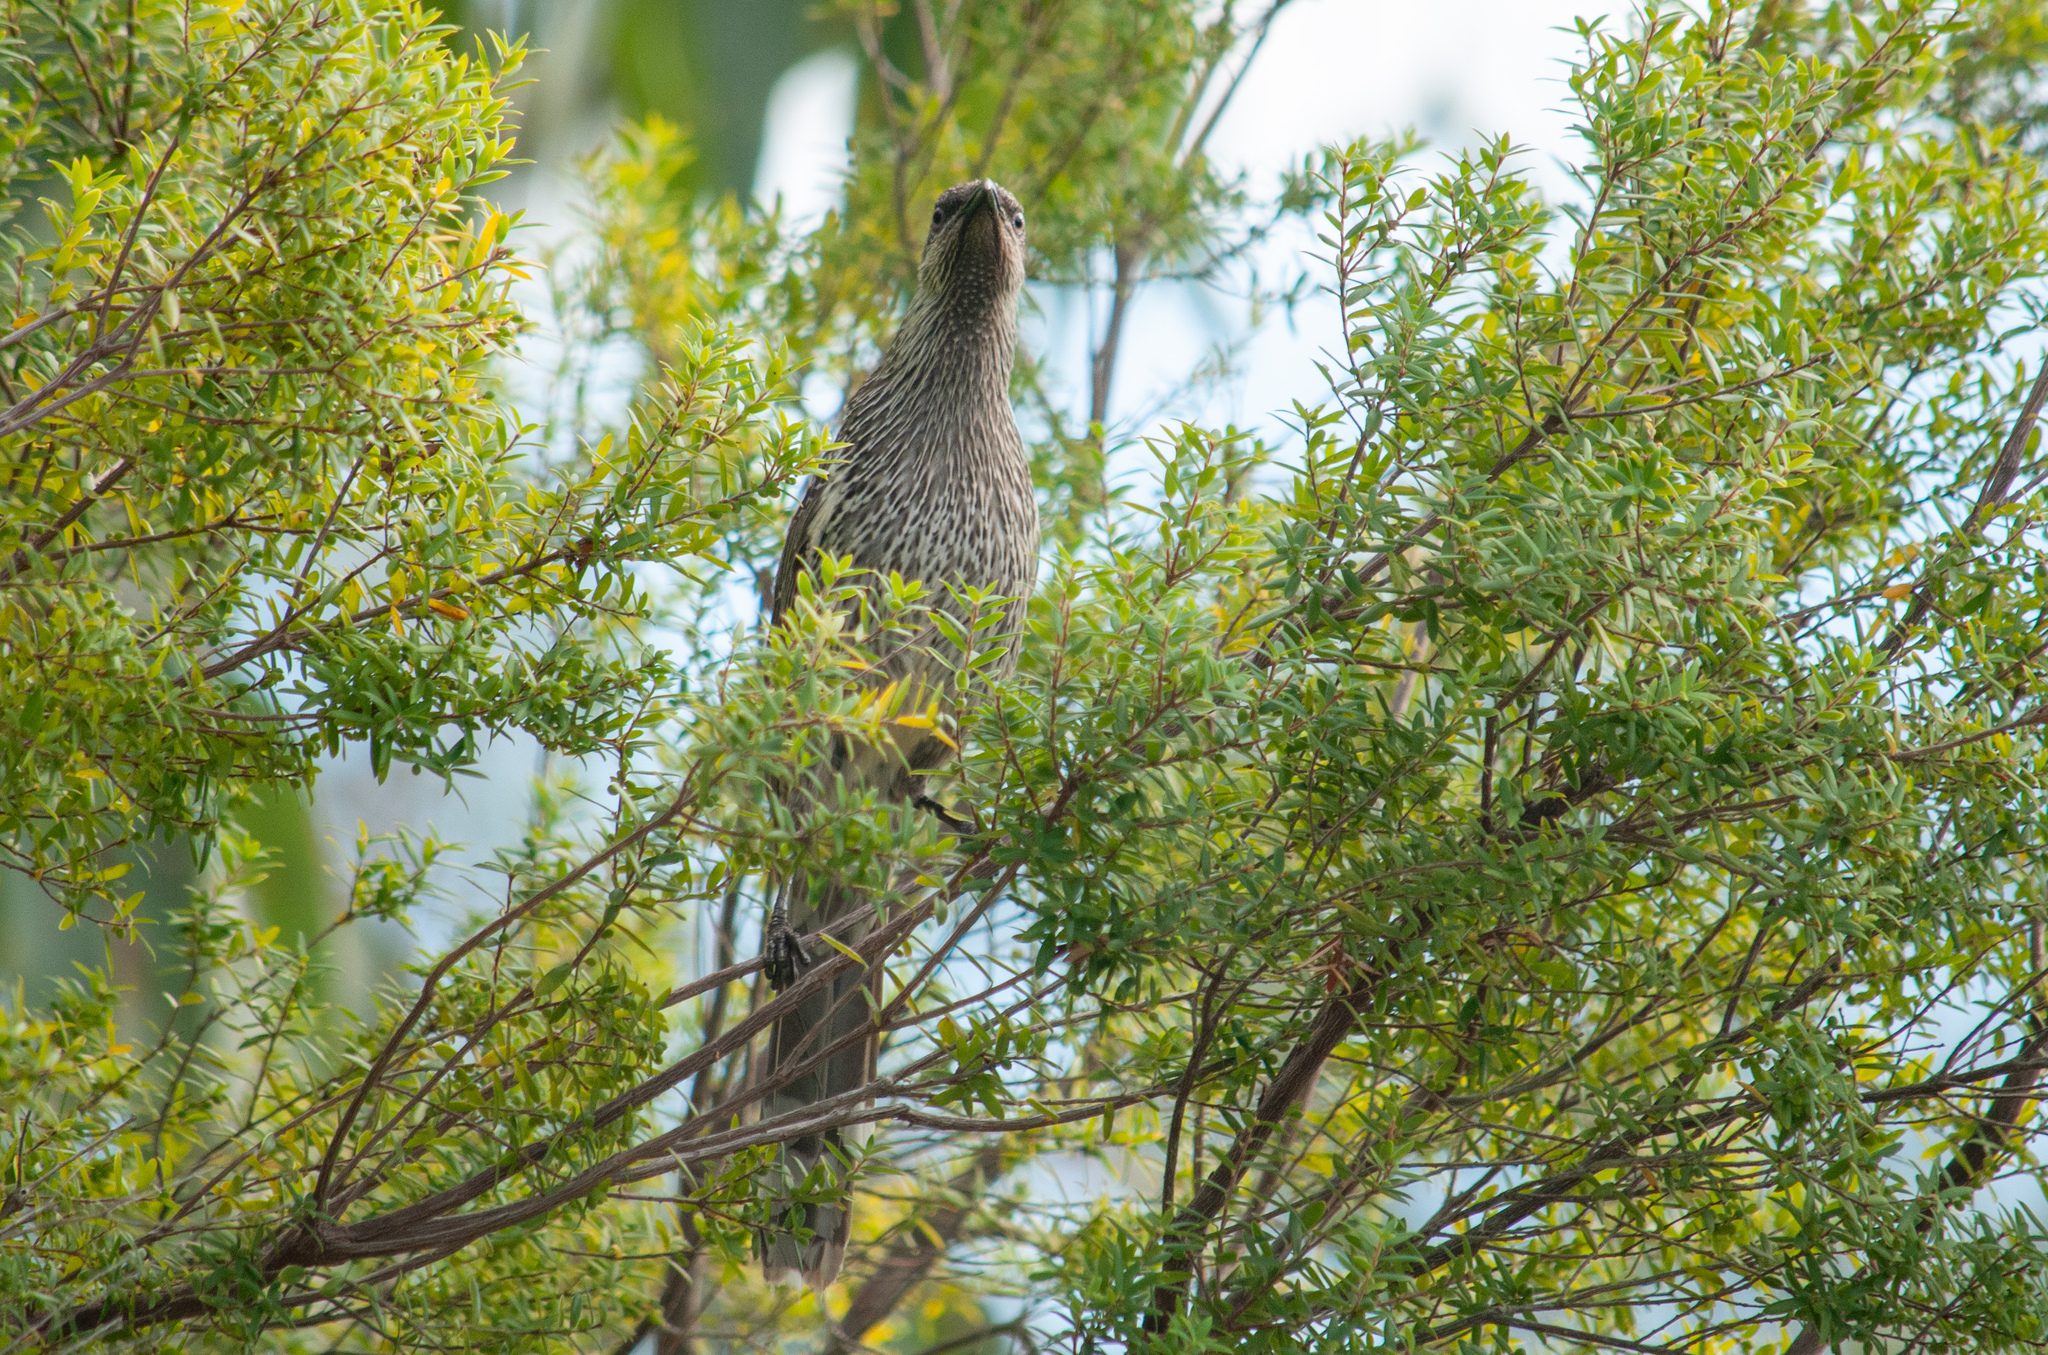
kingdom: Animalia
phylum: Chordata
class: Aves
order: Passeriformes
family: Meliphagidae
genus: Anthochaera
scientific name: Anthochaera chrysoptera
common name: Little wattlebird
